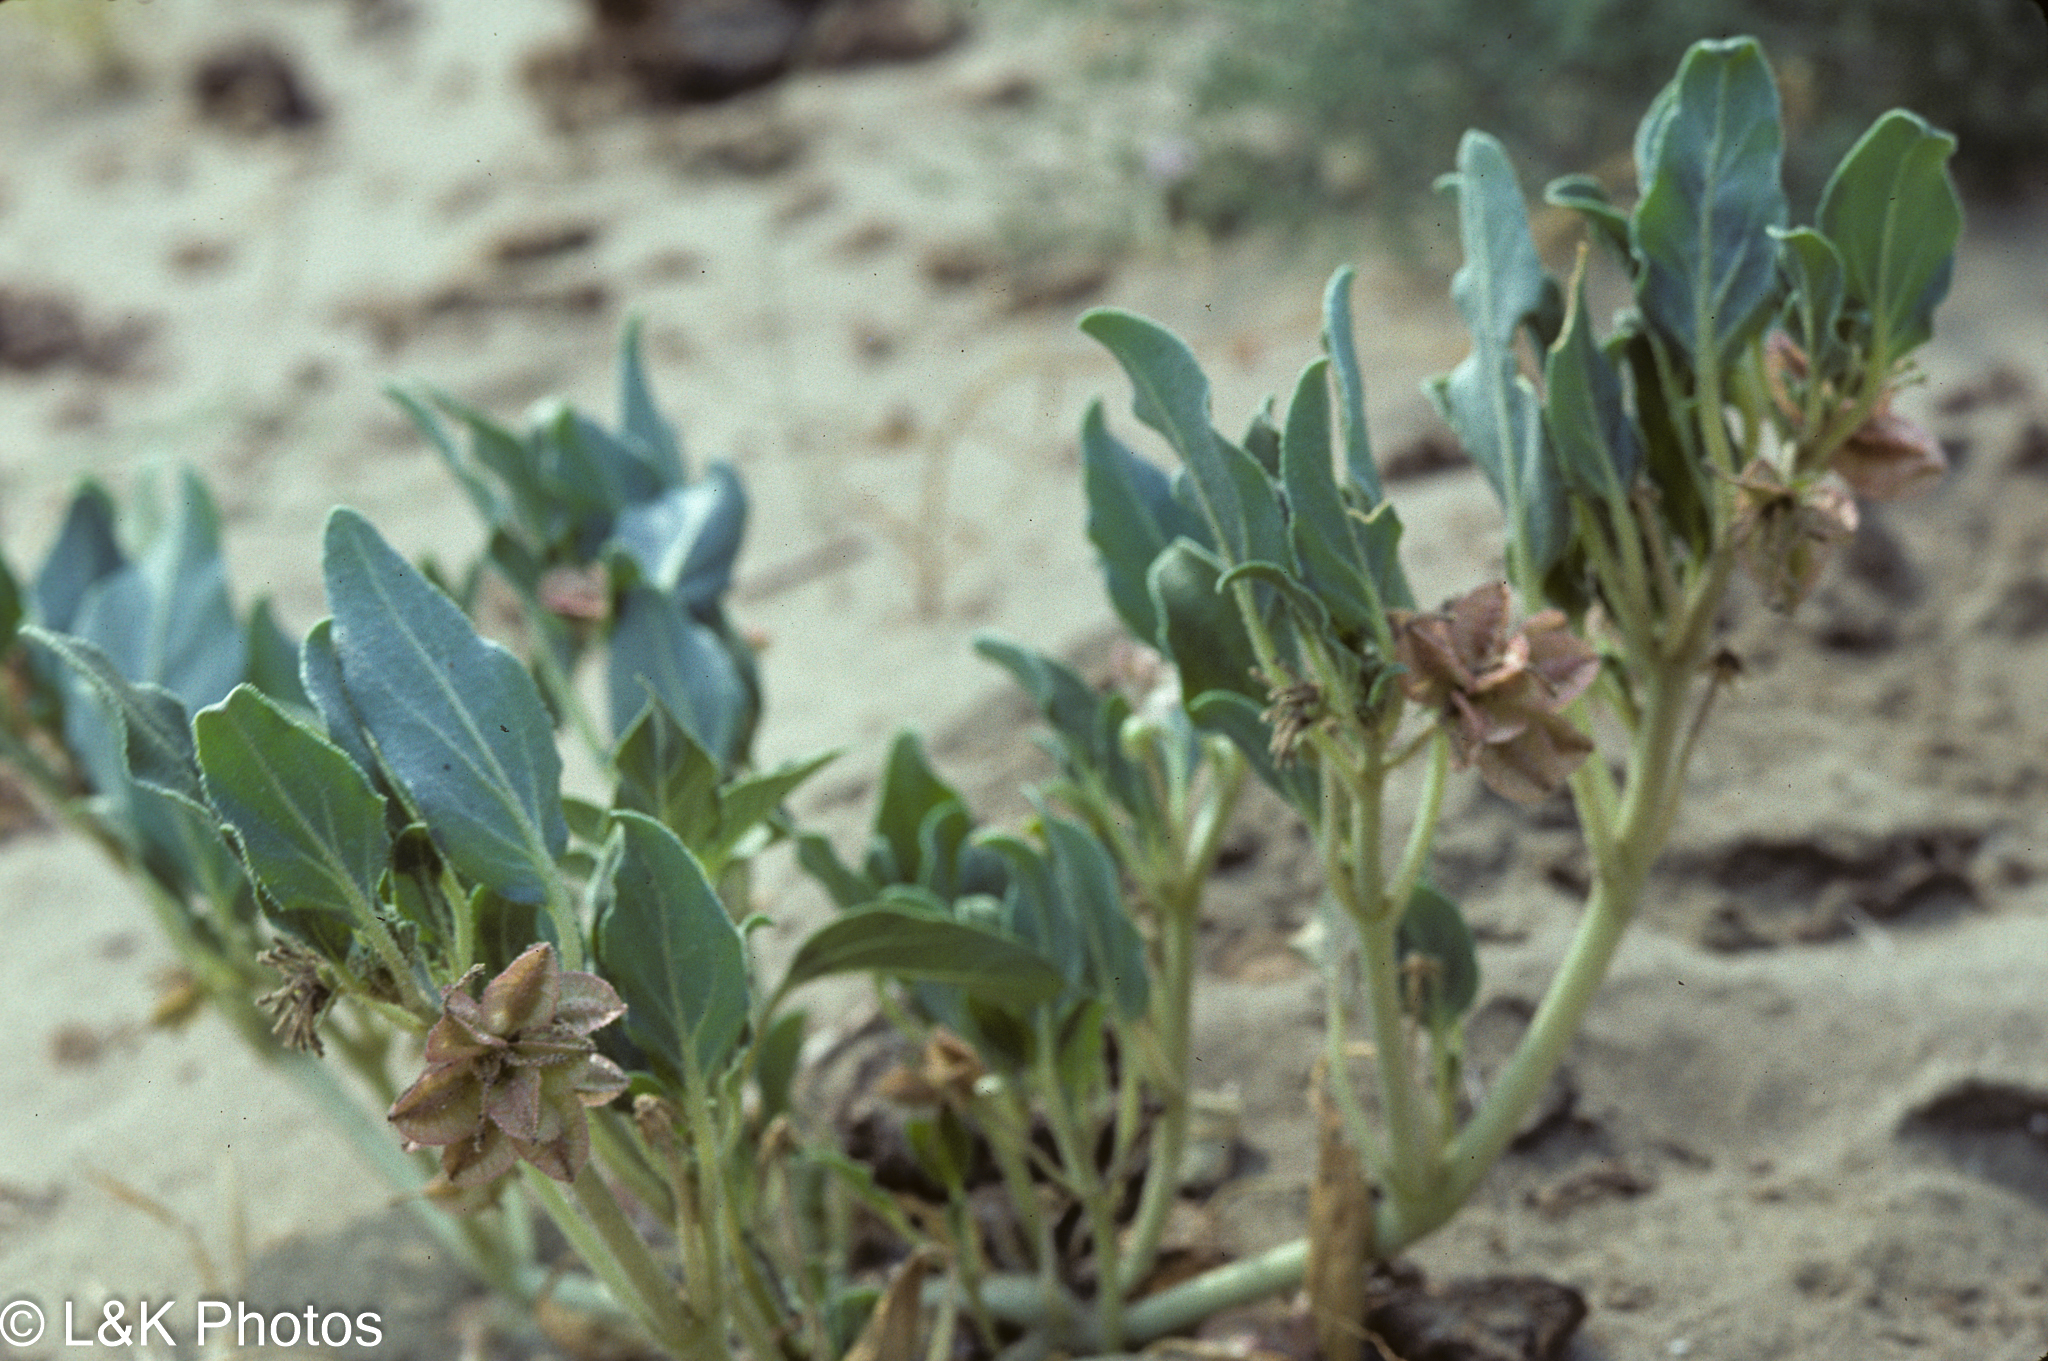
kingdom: Plantae
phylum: Tracheophyta
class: Magnoliopsida
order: Caryophyllales
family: Nyctaginaceae
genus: Tripterocalyx
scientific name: Tripterocalyx micranthus
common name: Small-flowered sand-verbena
